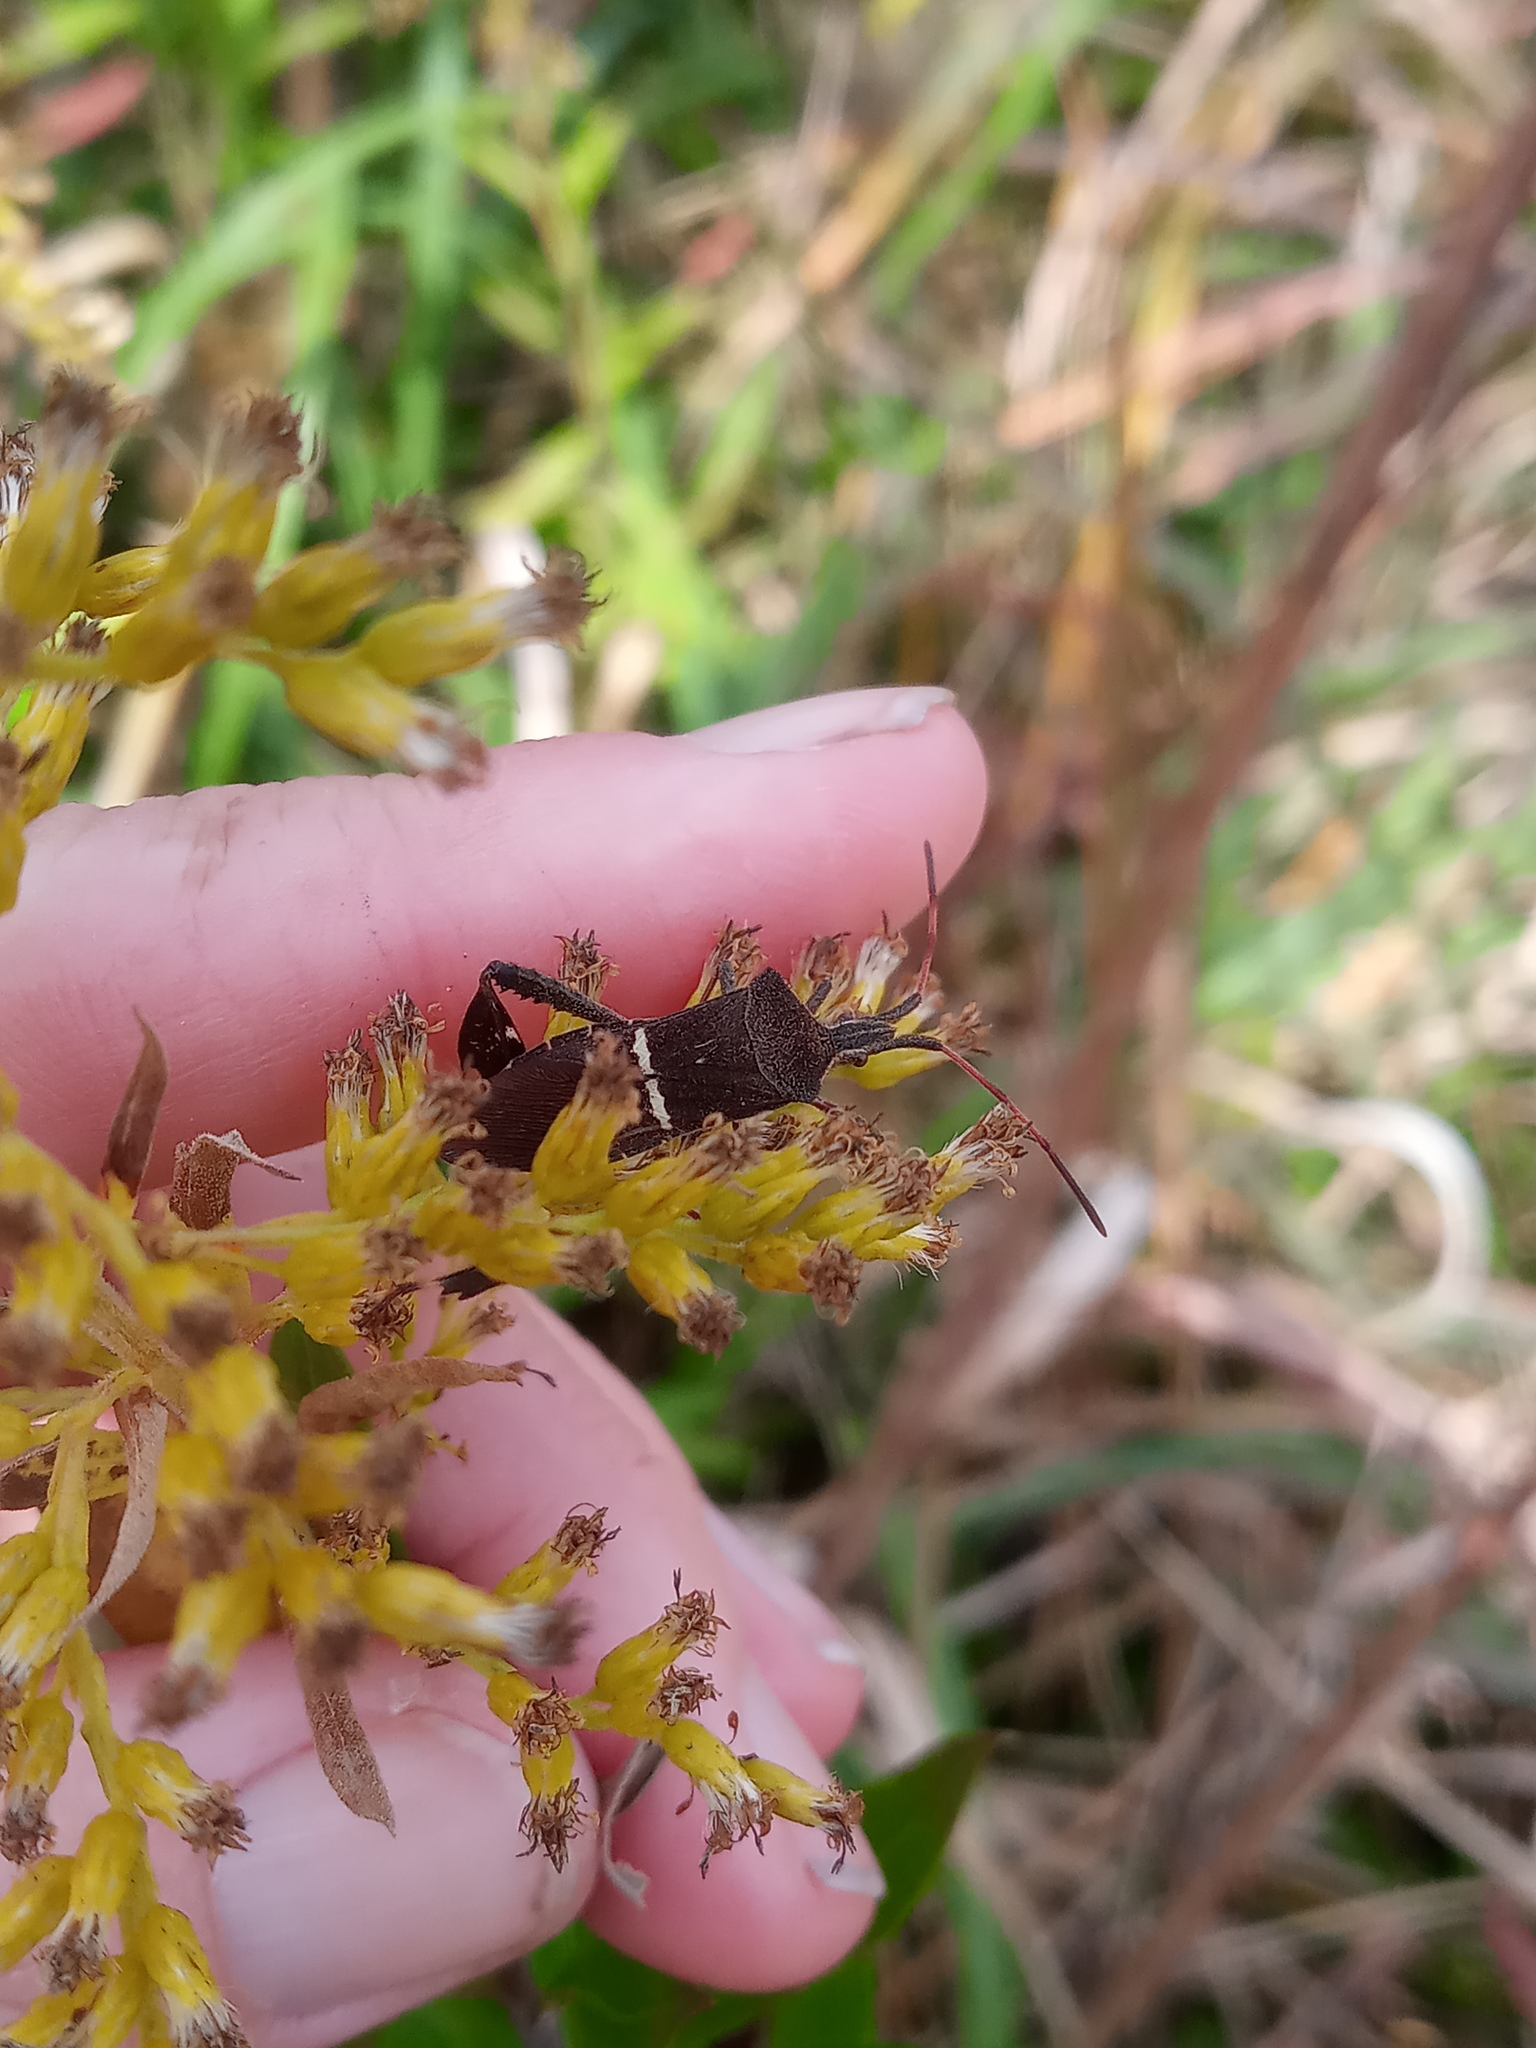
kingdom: Animalia
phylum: Arthropoda
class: Insecta
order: Hemiptera
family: Coreidae
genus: Leptoglossus
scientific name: Leptoglossus phyllopus
